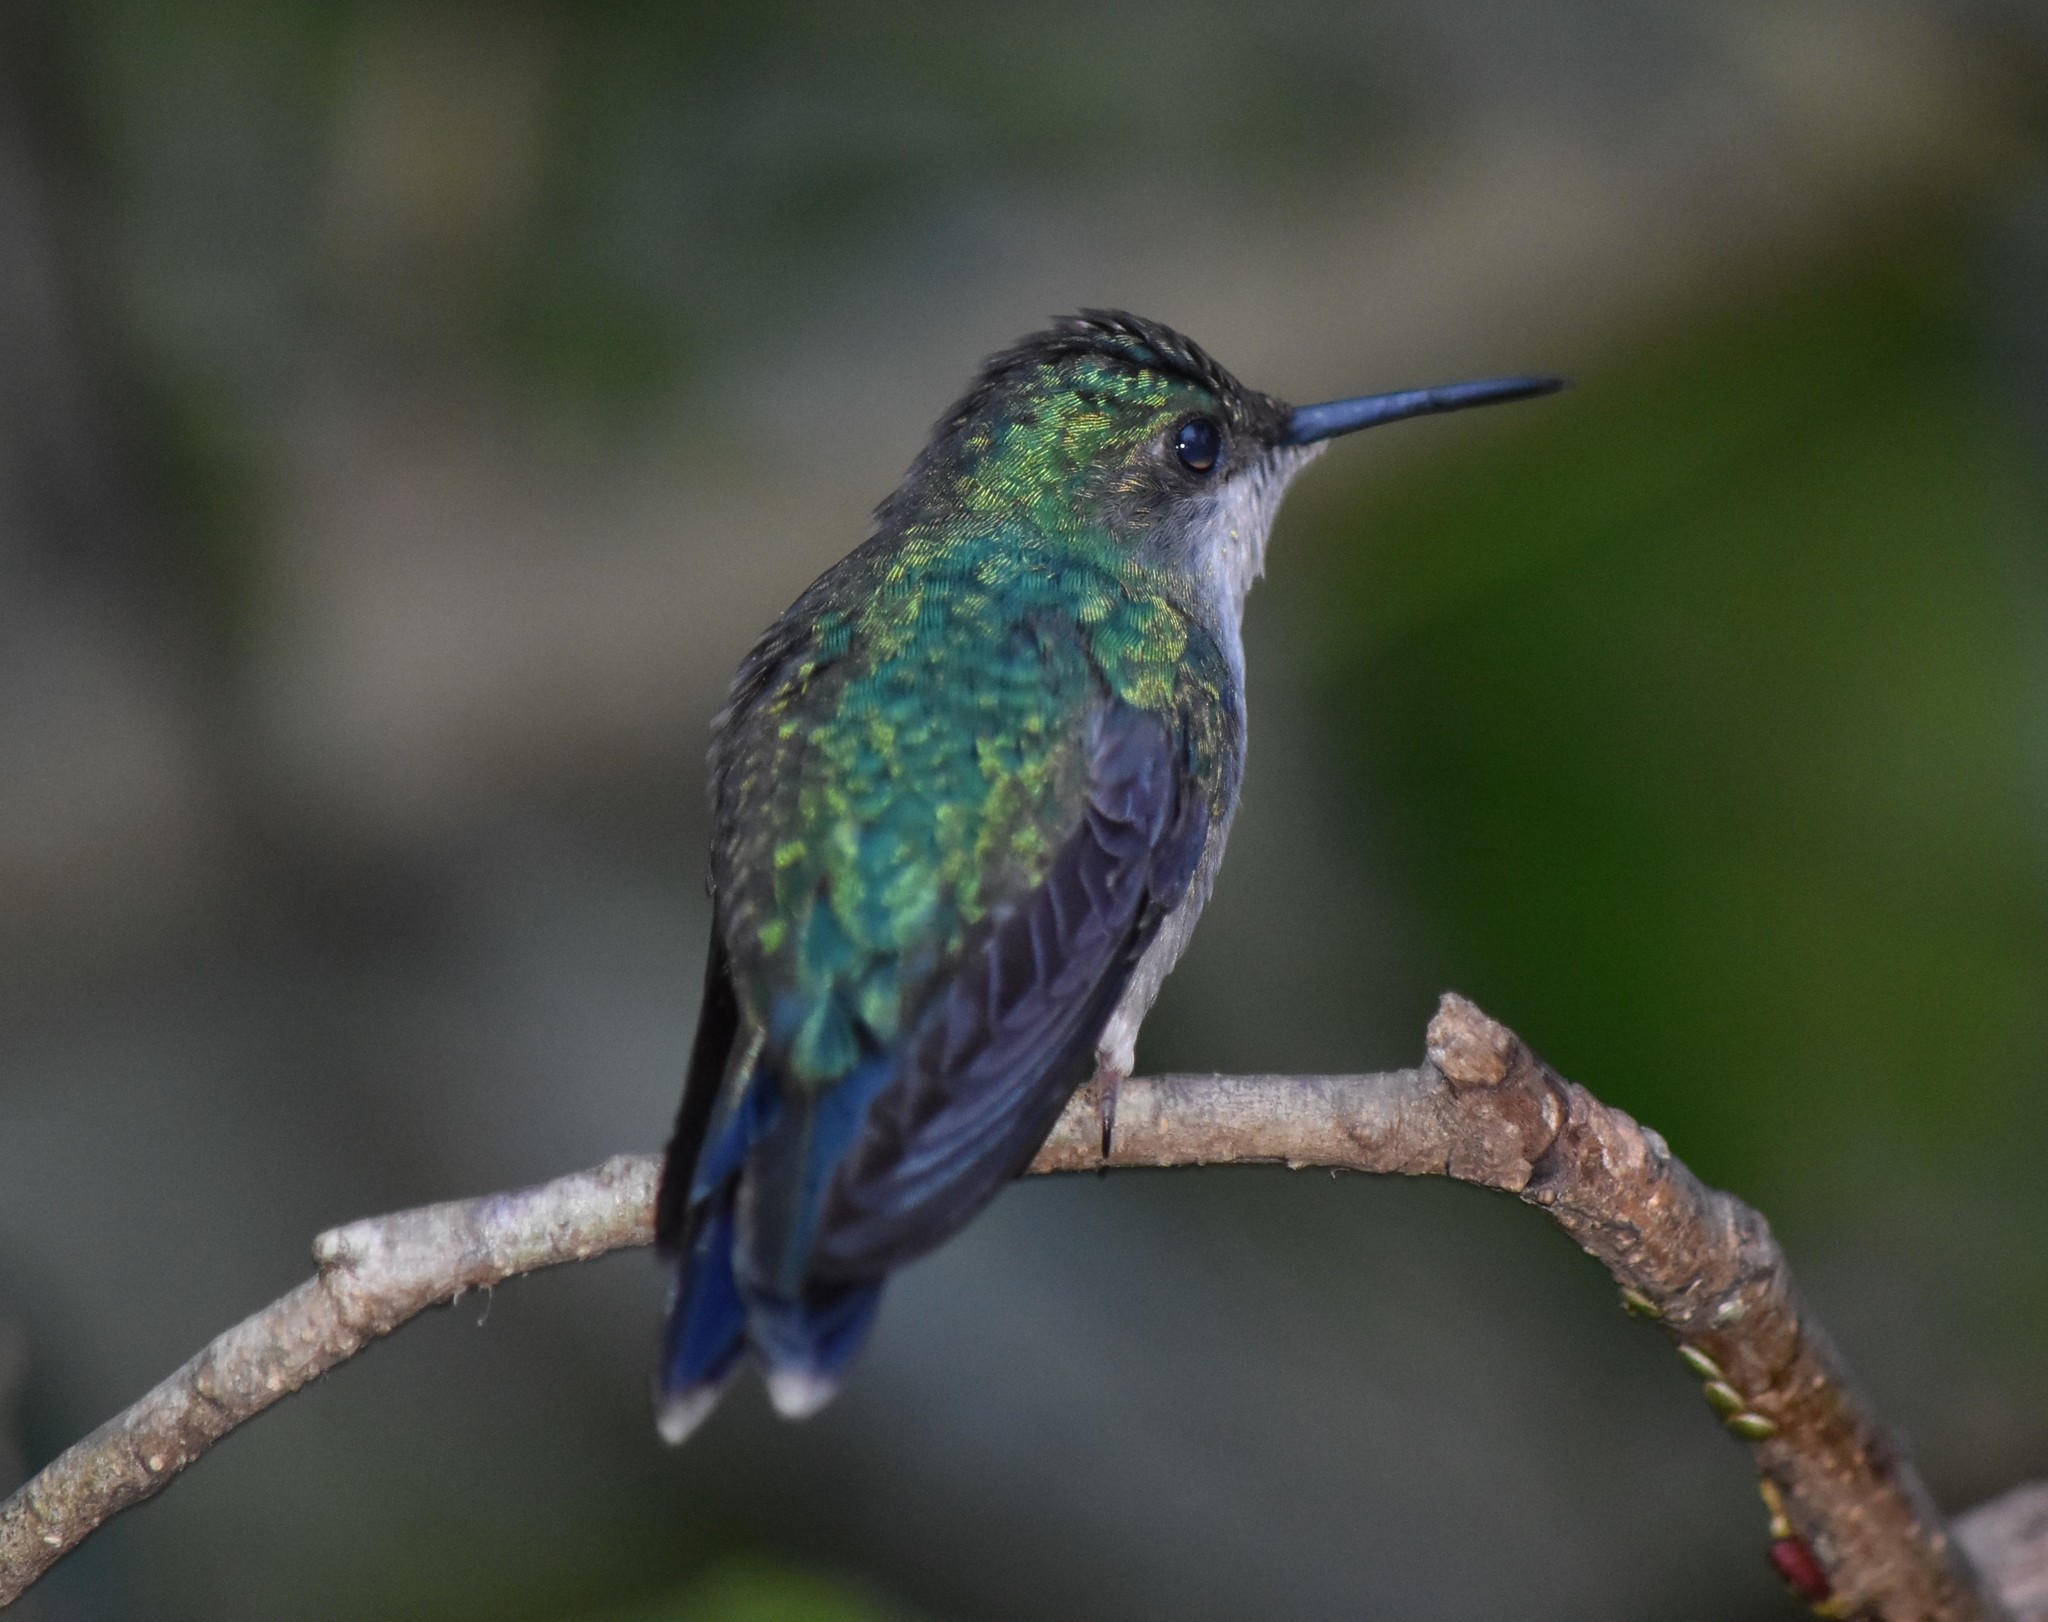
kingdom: Animalia
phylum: Chordata
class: Aves
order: Apodiformes
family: Trochilidae
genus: Thalurania
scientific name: Thalurania glaucopis
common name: Violet-capped woodnymph
